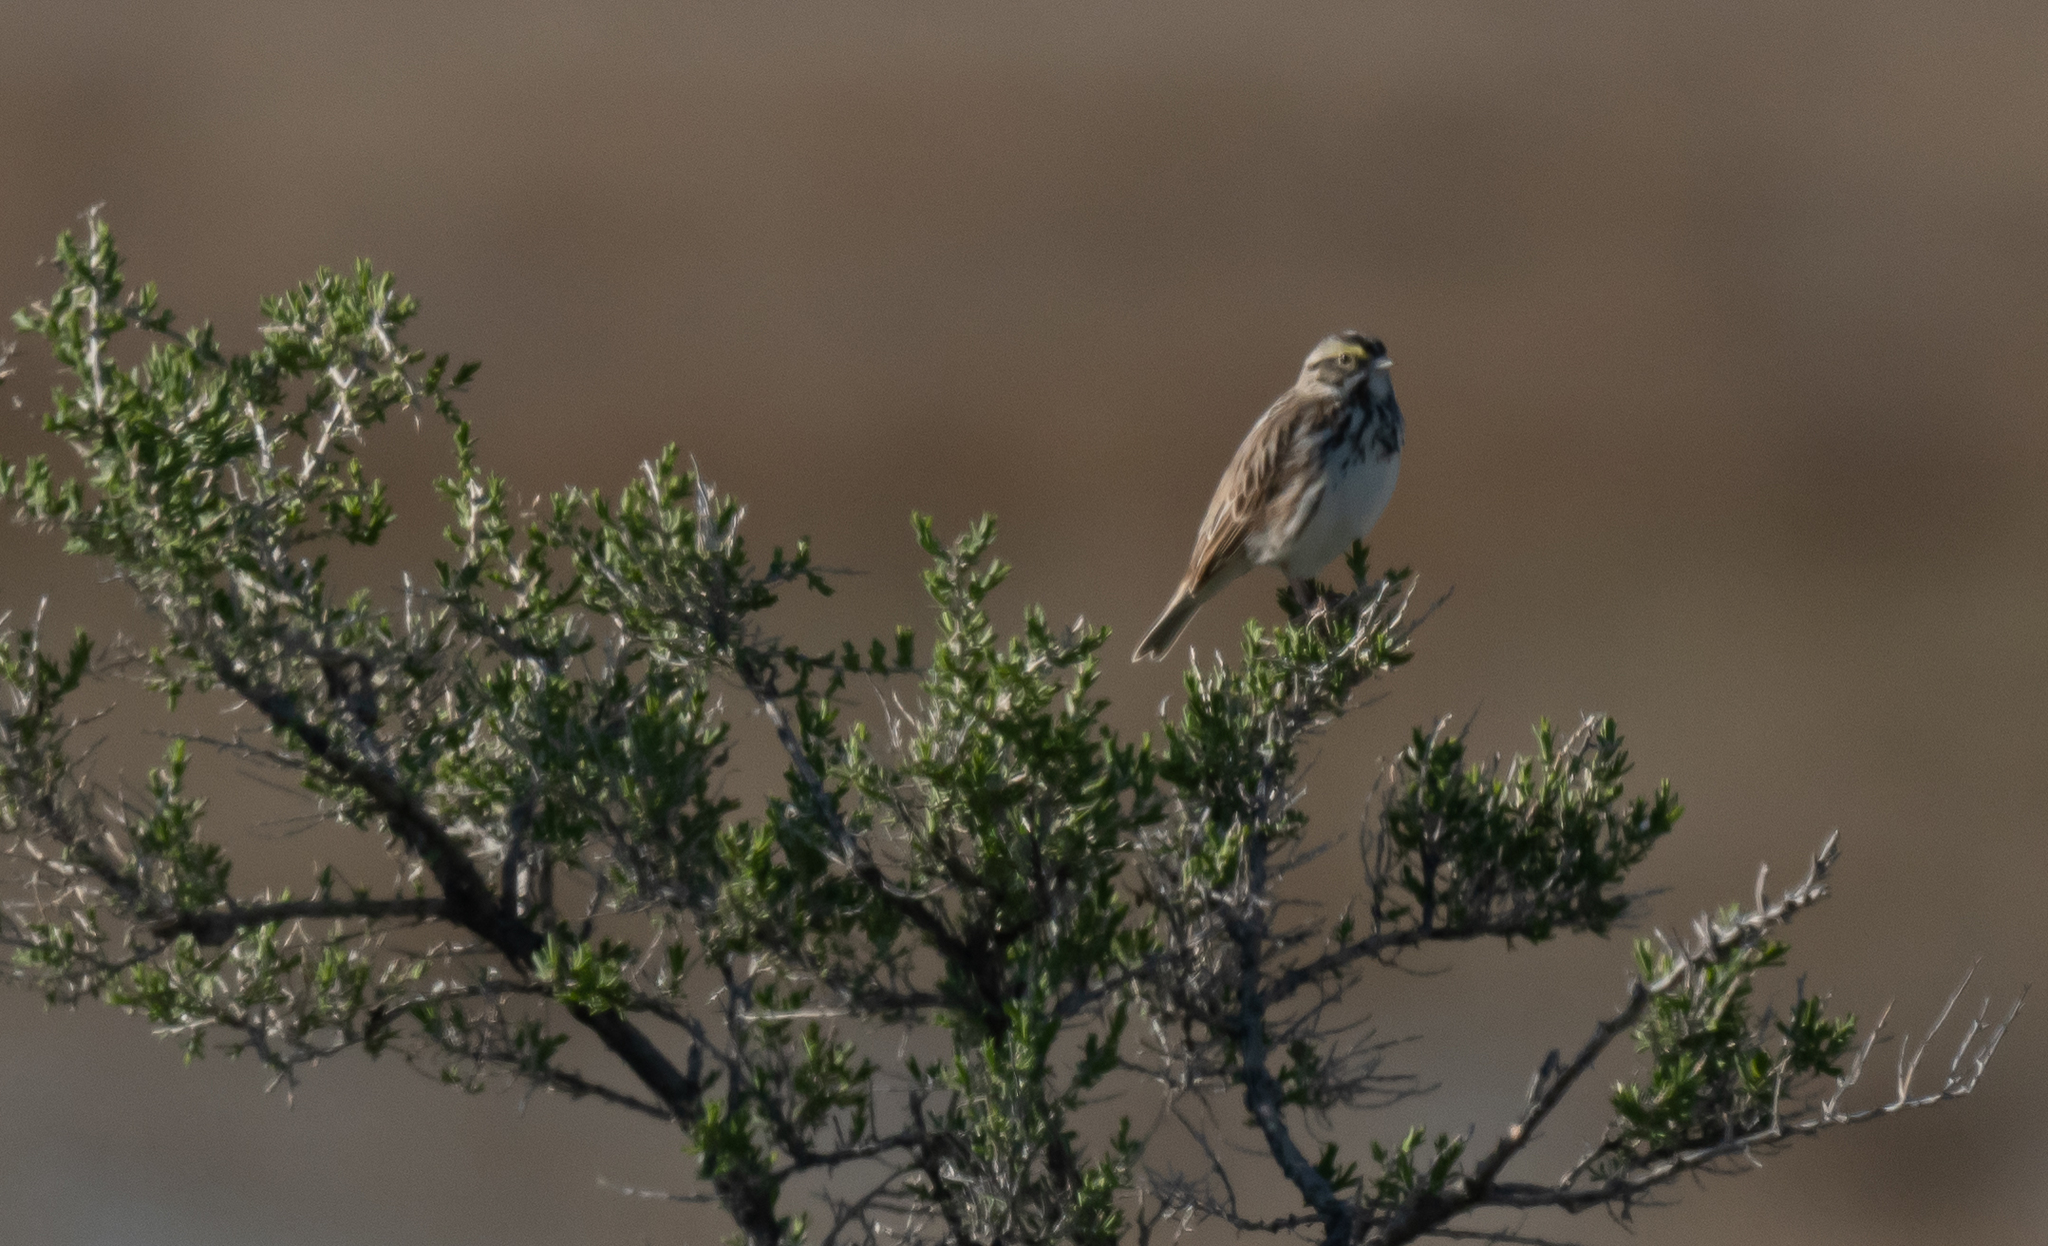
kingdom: Animalia
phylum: Chordata
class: Aves
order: Passeriformes
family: Passerellidae
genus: Passerculus
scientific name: Passerculus sandwichensis
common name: Savannah sparrow
